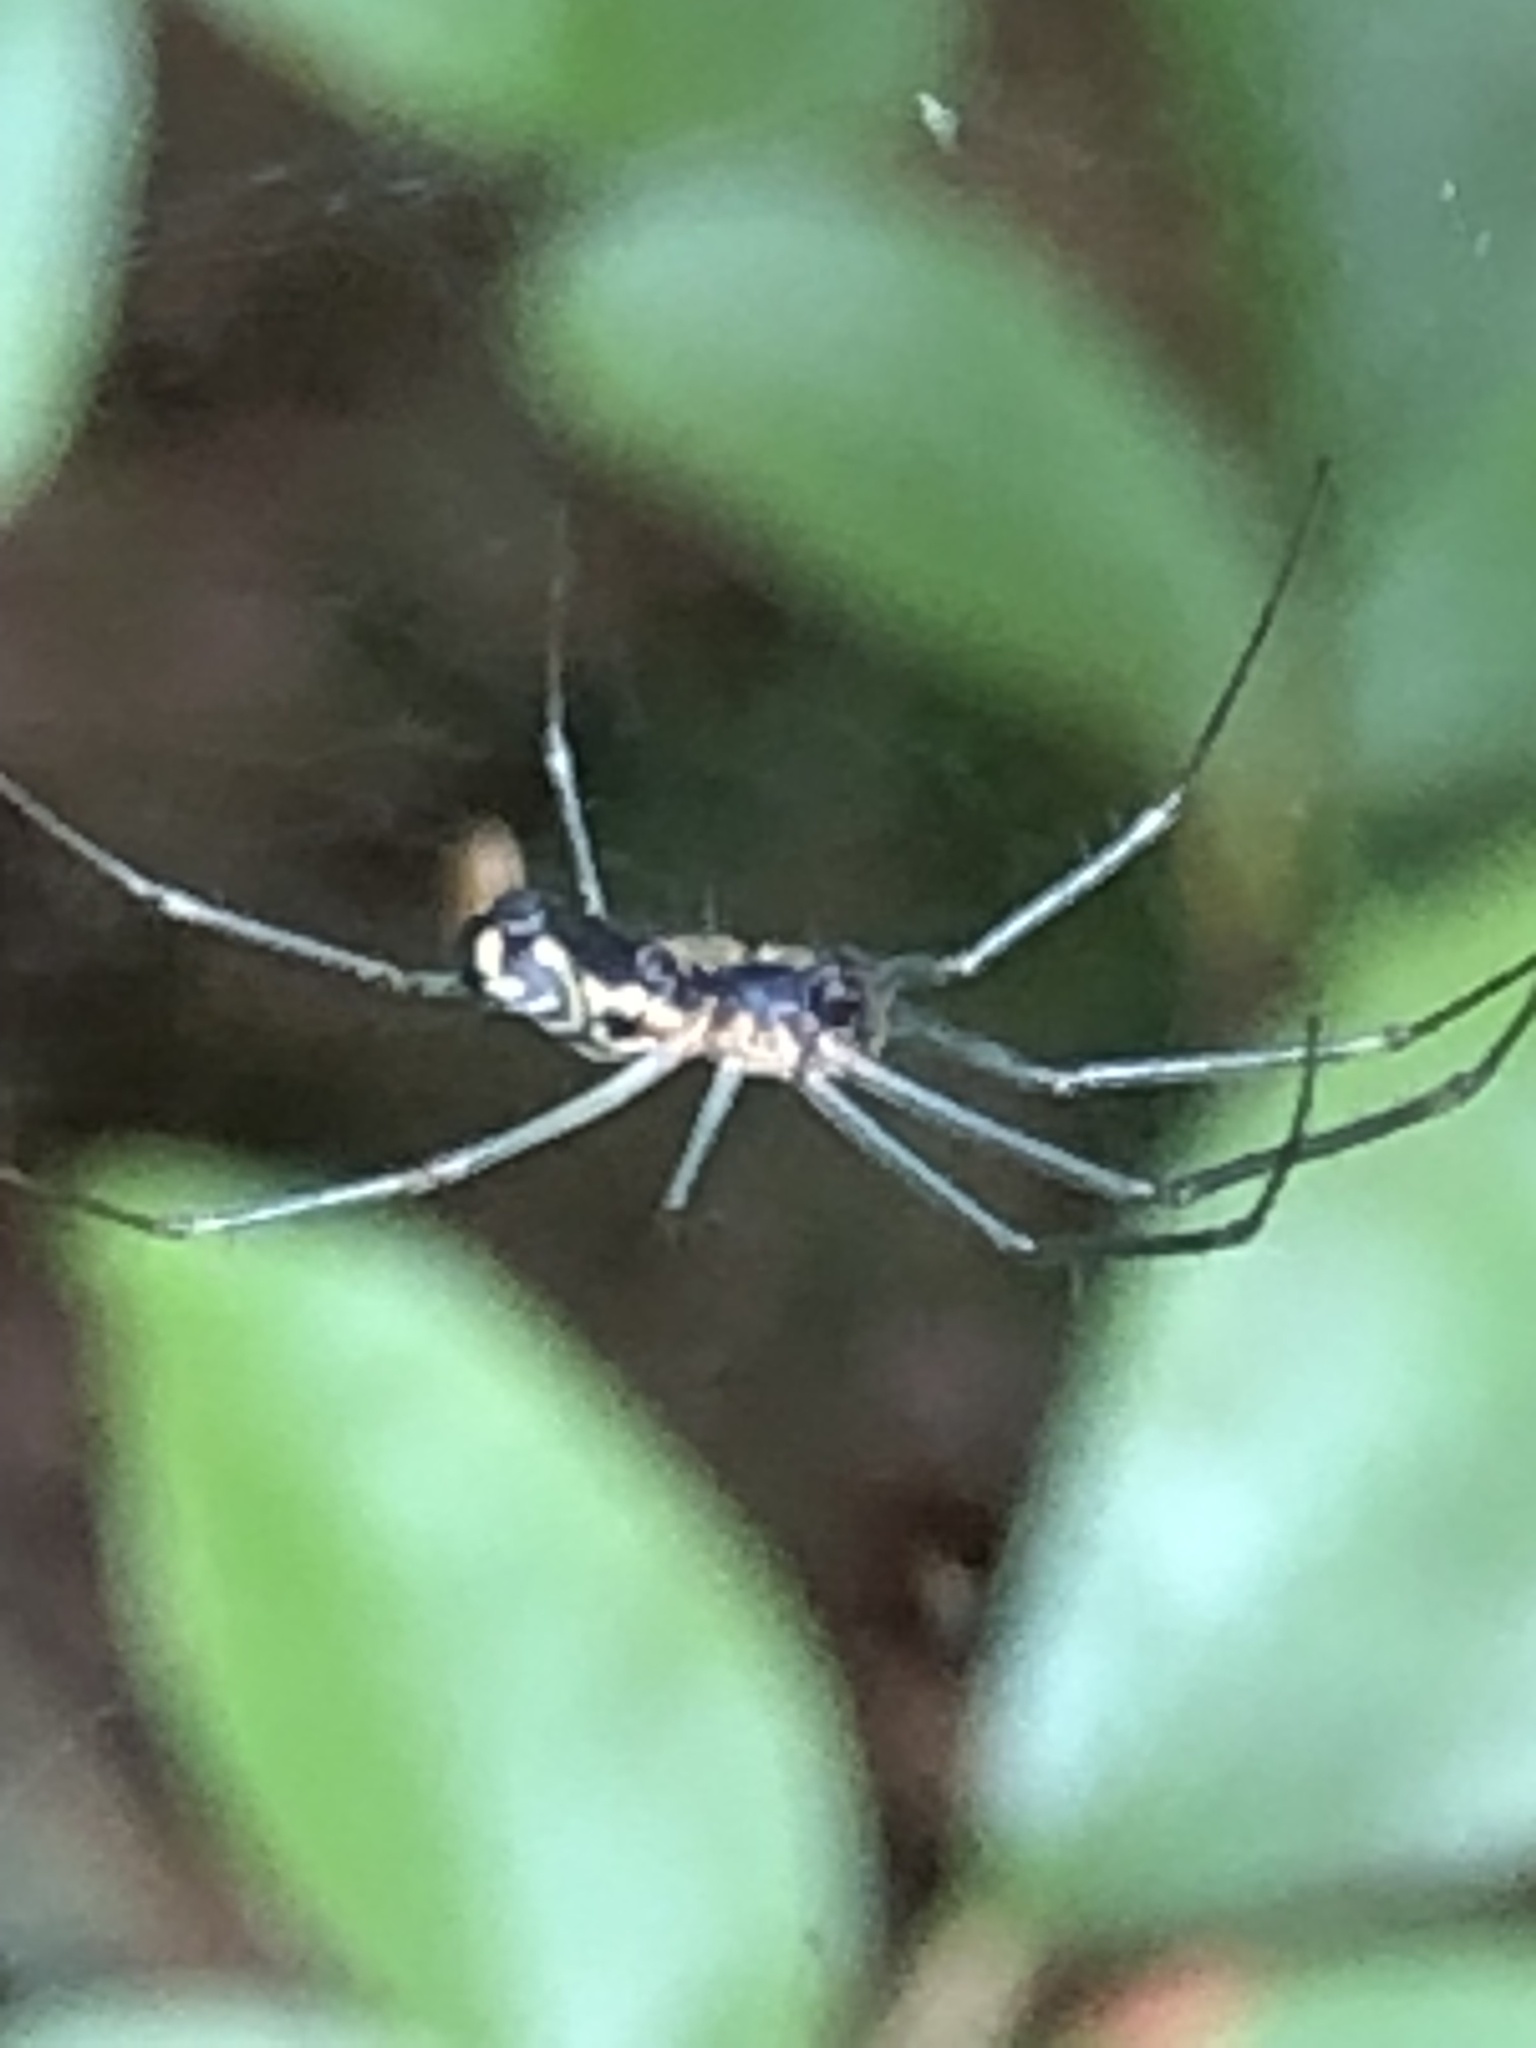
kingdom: Animalia
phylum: Arthropoda
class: Arachnida
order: Araneae
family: Linyphiidae
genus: Neriene
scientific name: Neriene radiata
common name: Filmy dome spider
